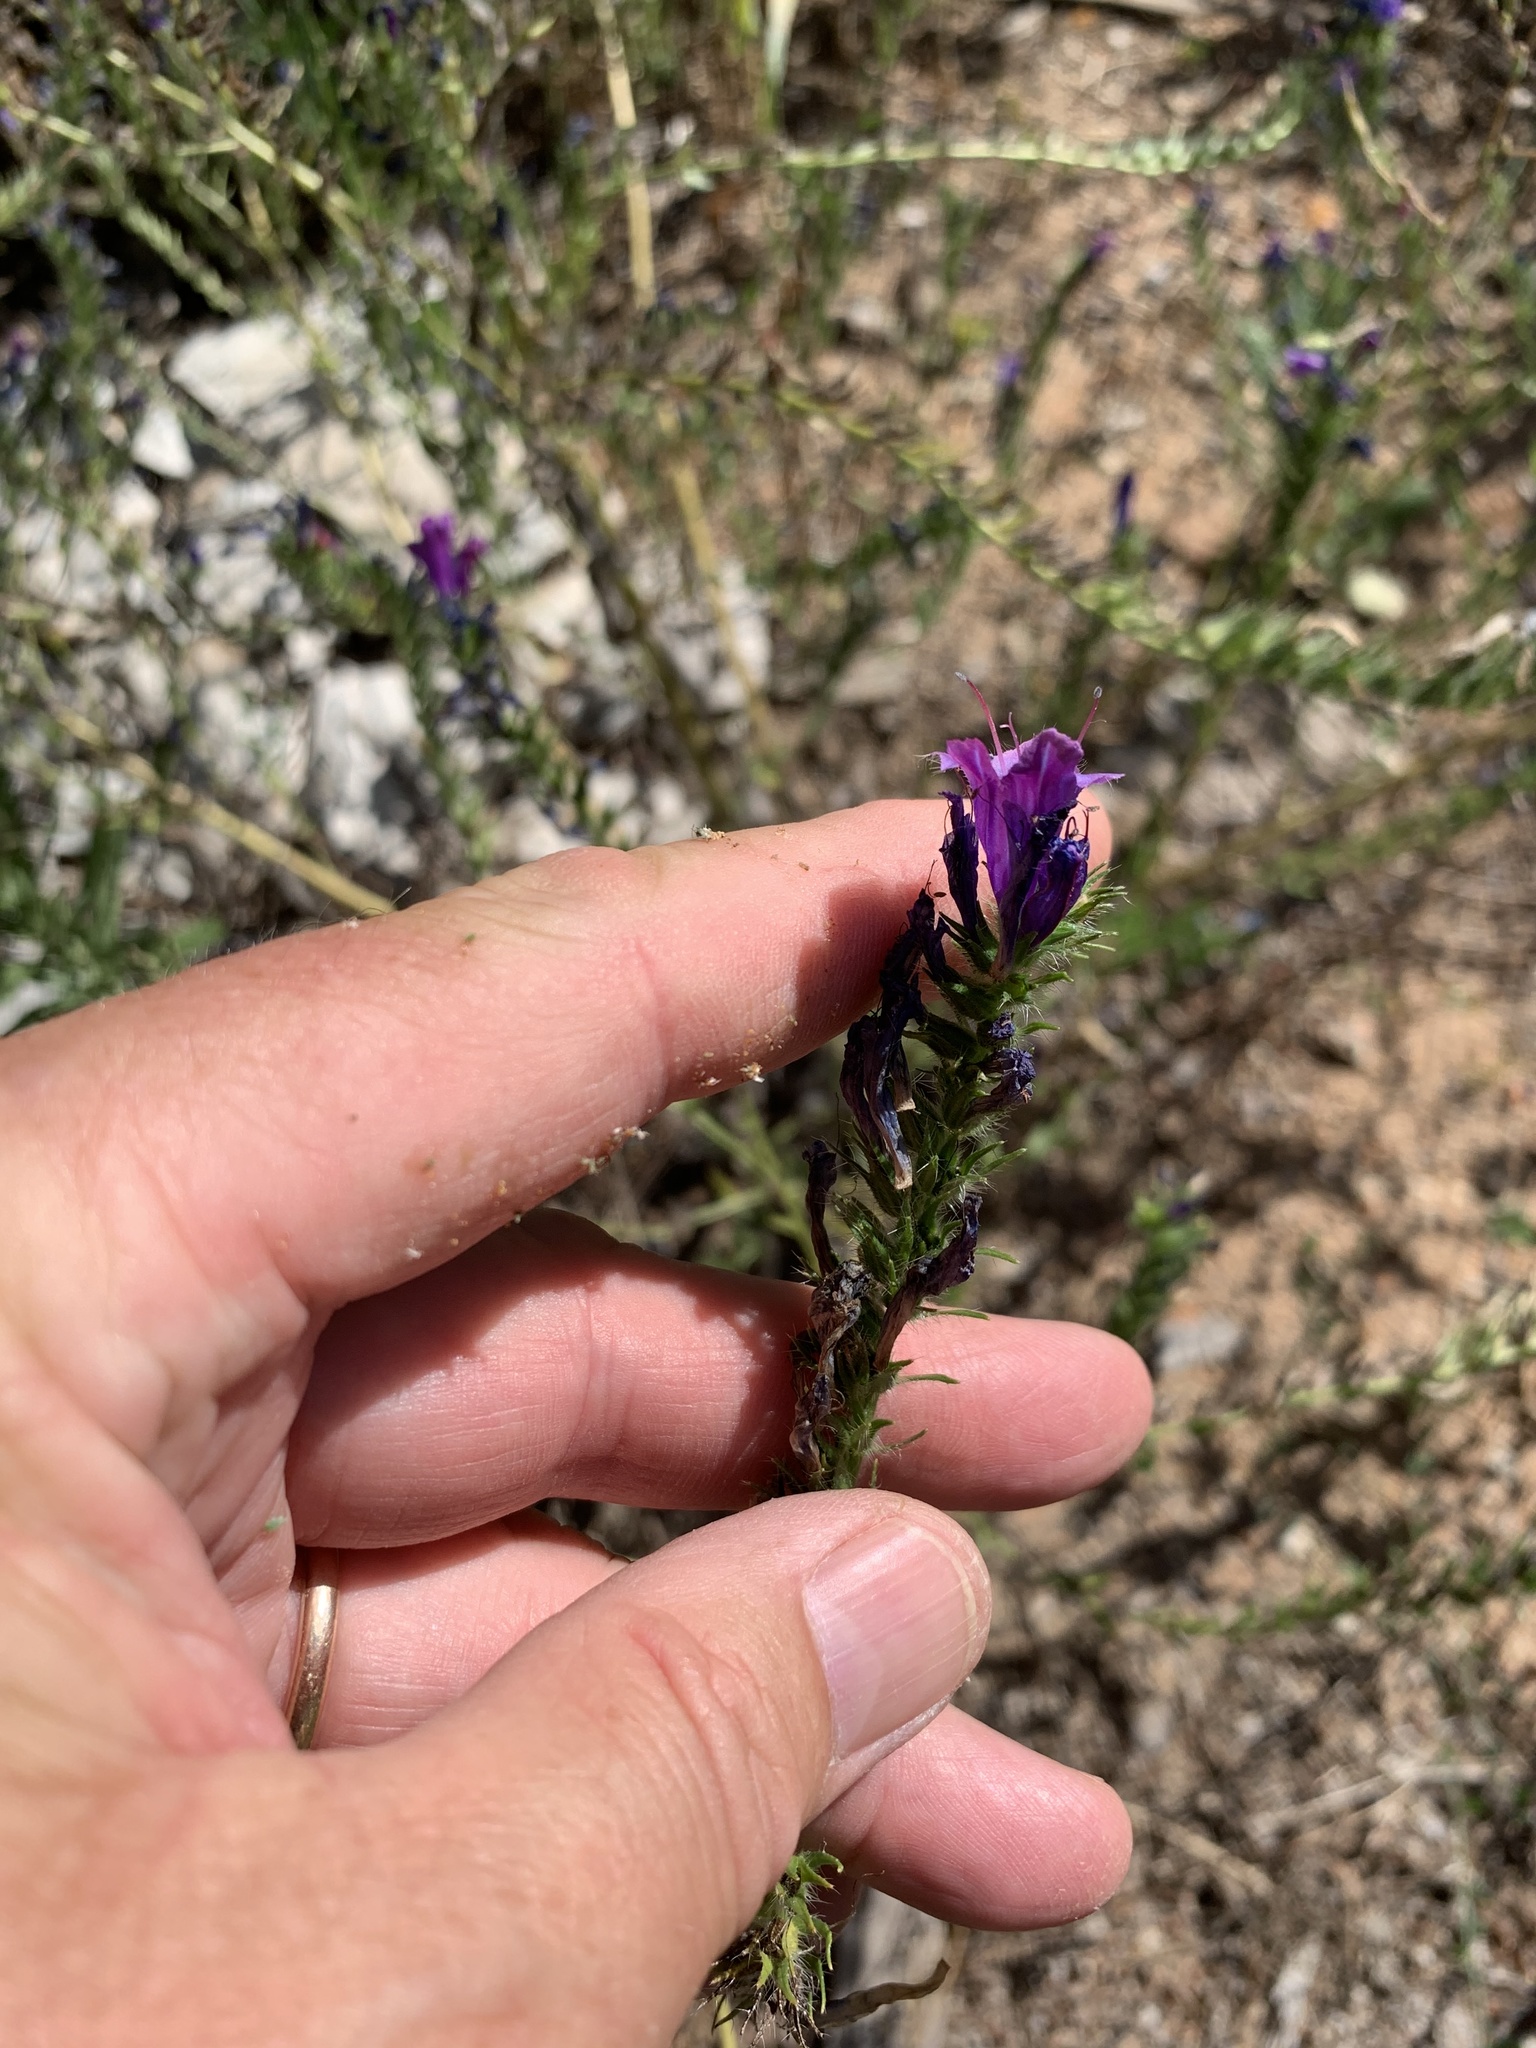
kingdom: Plantae
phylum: Tracheophyta
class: Magnoliopsida
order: Boraginales
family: Boraginaceae
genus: Echium
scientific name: Echium plantagineum
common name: Purple viper's-bugloss
